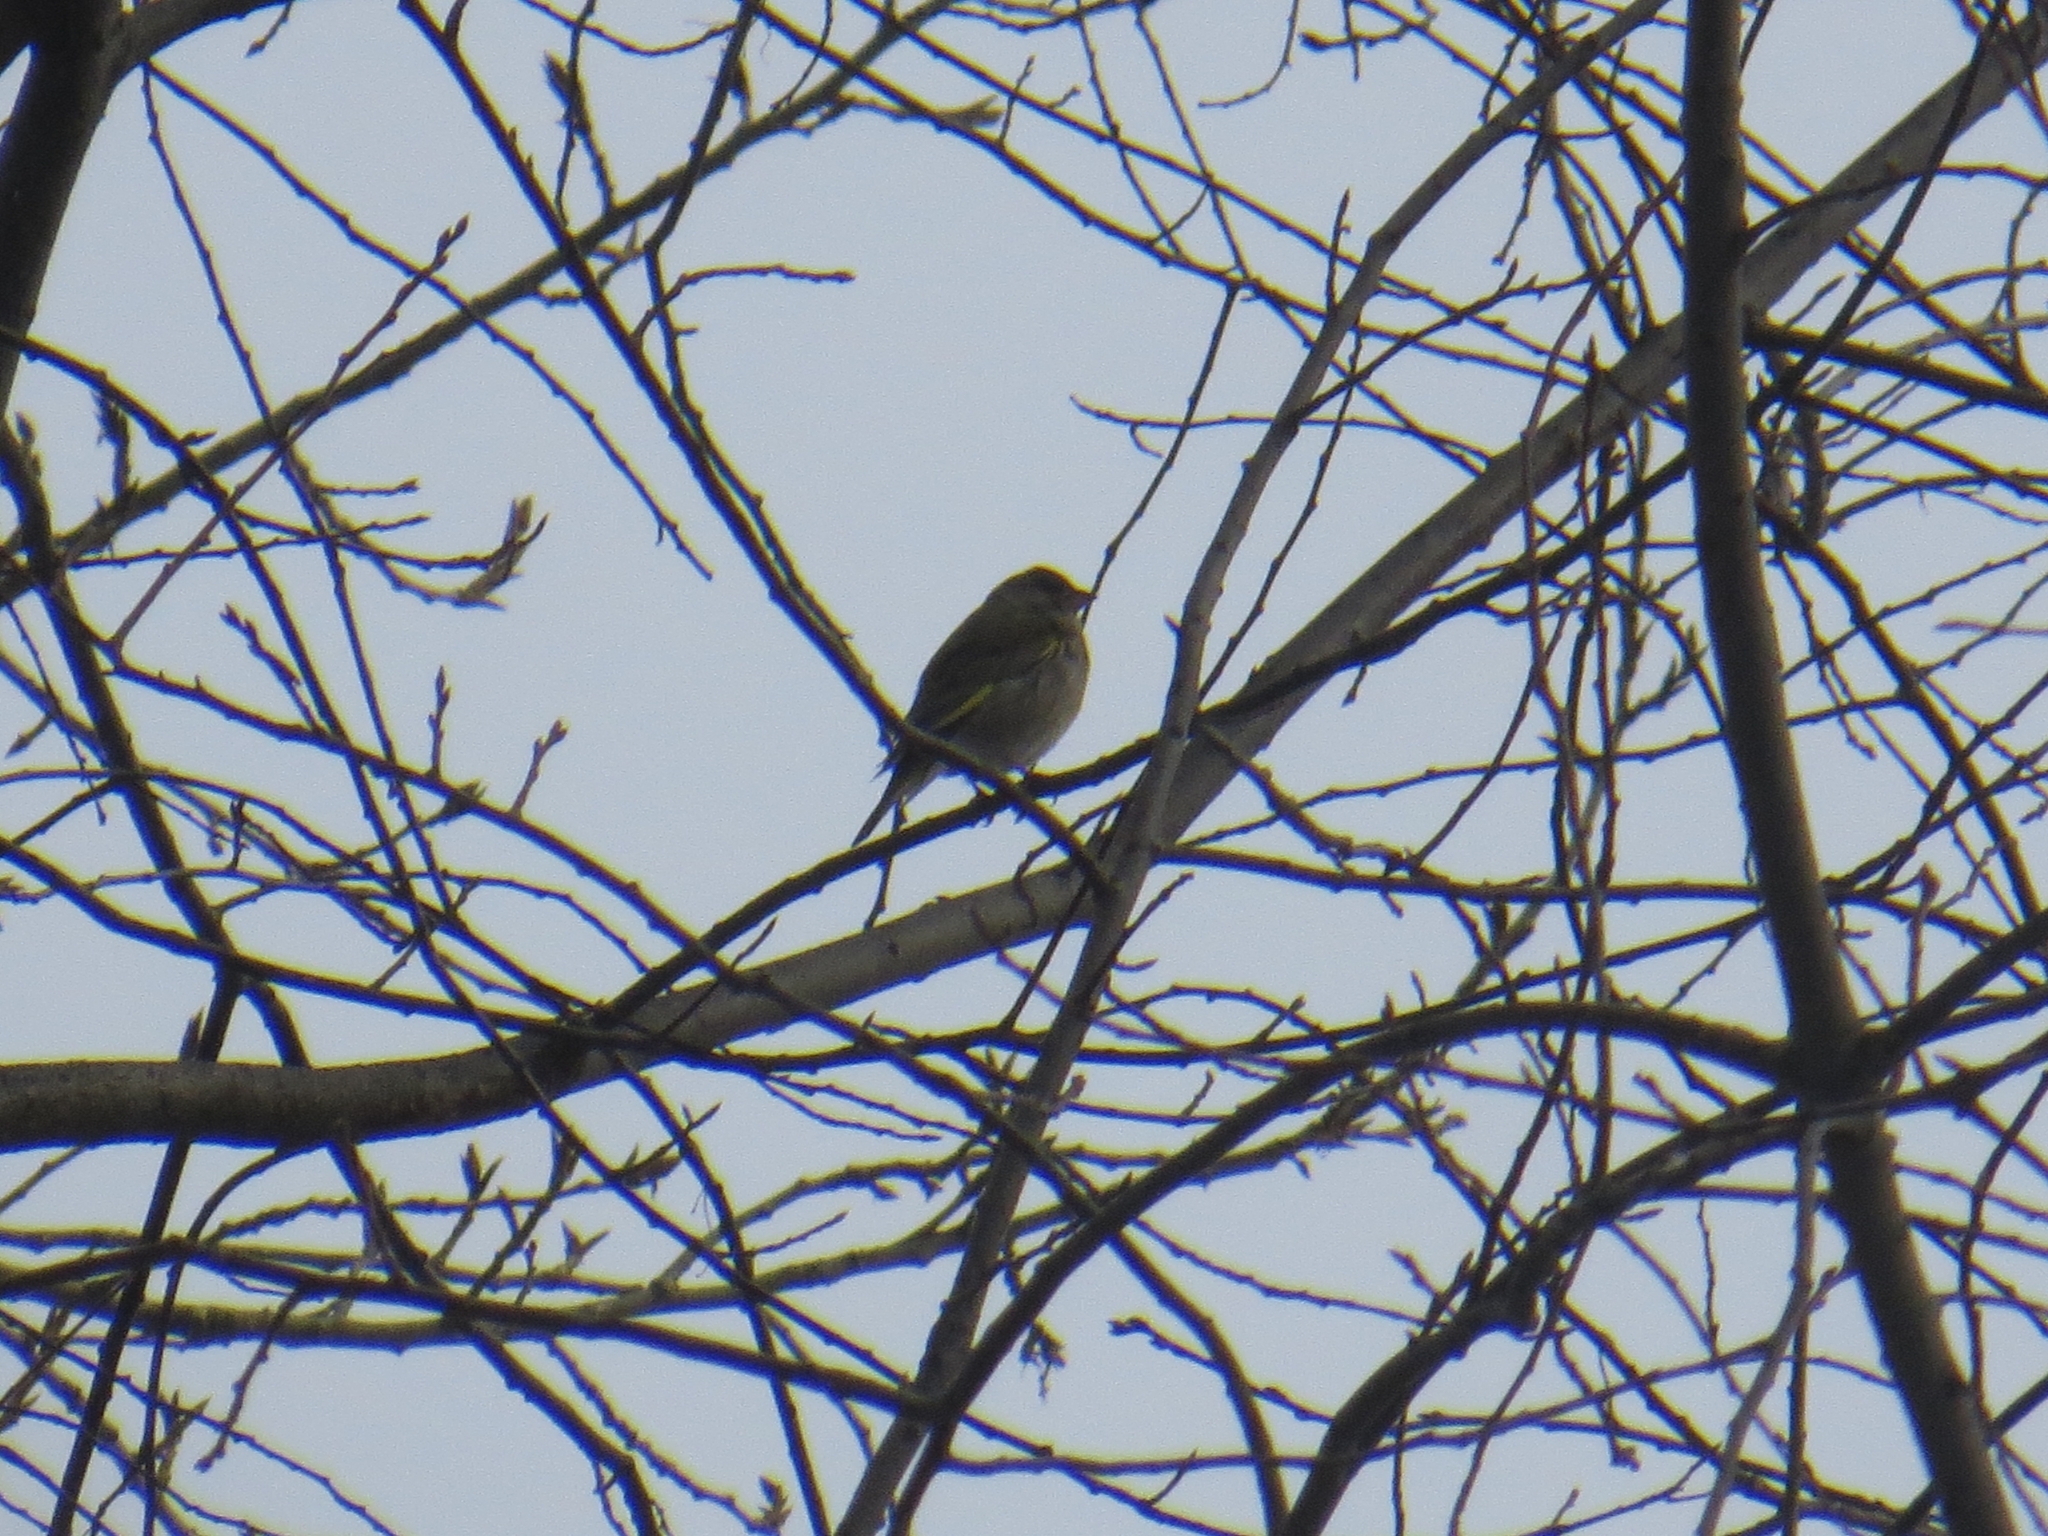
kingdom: Plantae
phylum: Tracheophyta
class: Liliopsida
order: Poales
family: Poaceae
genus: Chloris
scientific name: Chloris chloris
